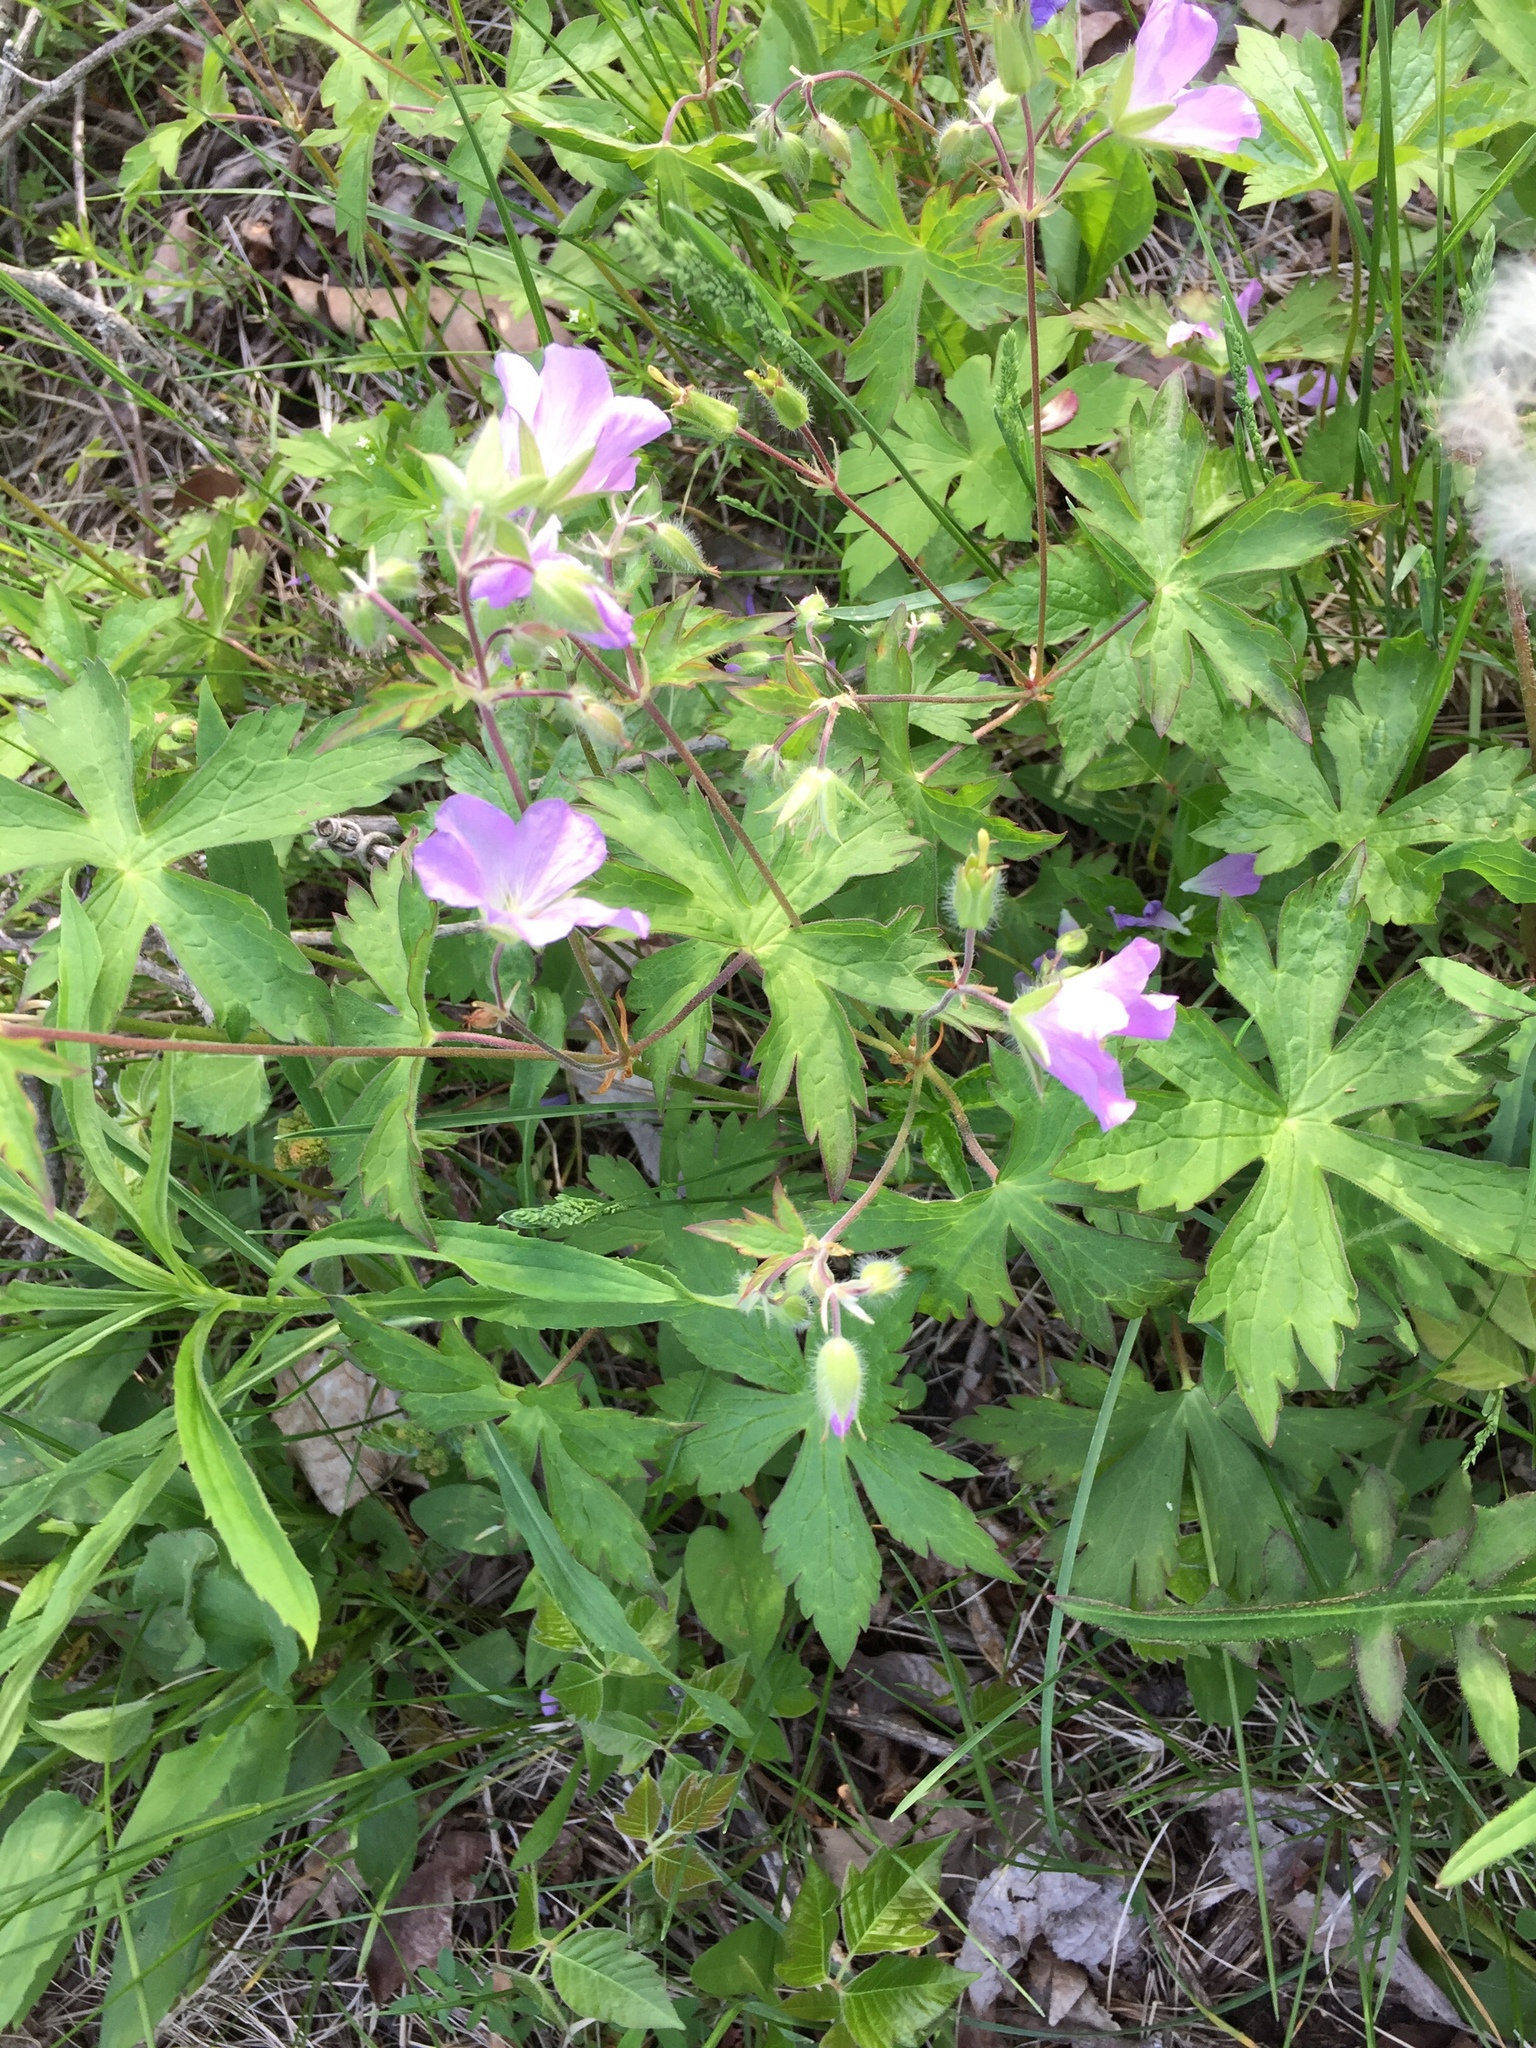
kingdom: Plantae
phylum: Tracheophyta
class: Magnoliopsida
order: Geraniales
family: Geraniaceae
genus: Geranium
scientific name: Geranium maculatum
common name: Spotted geranium
